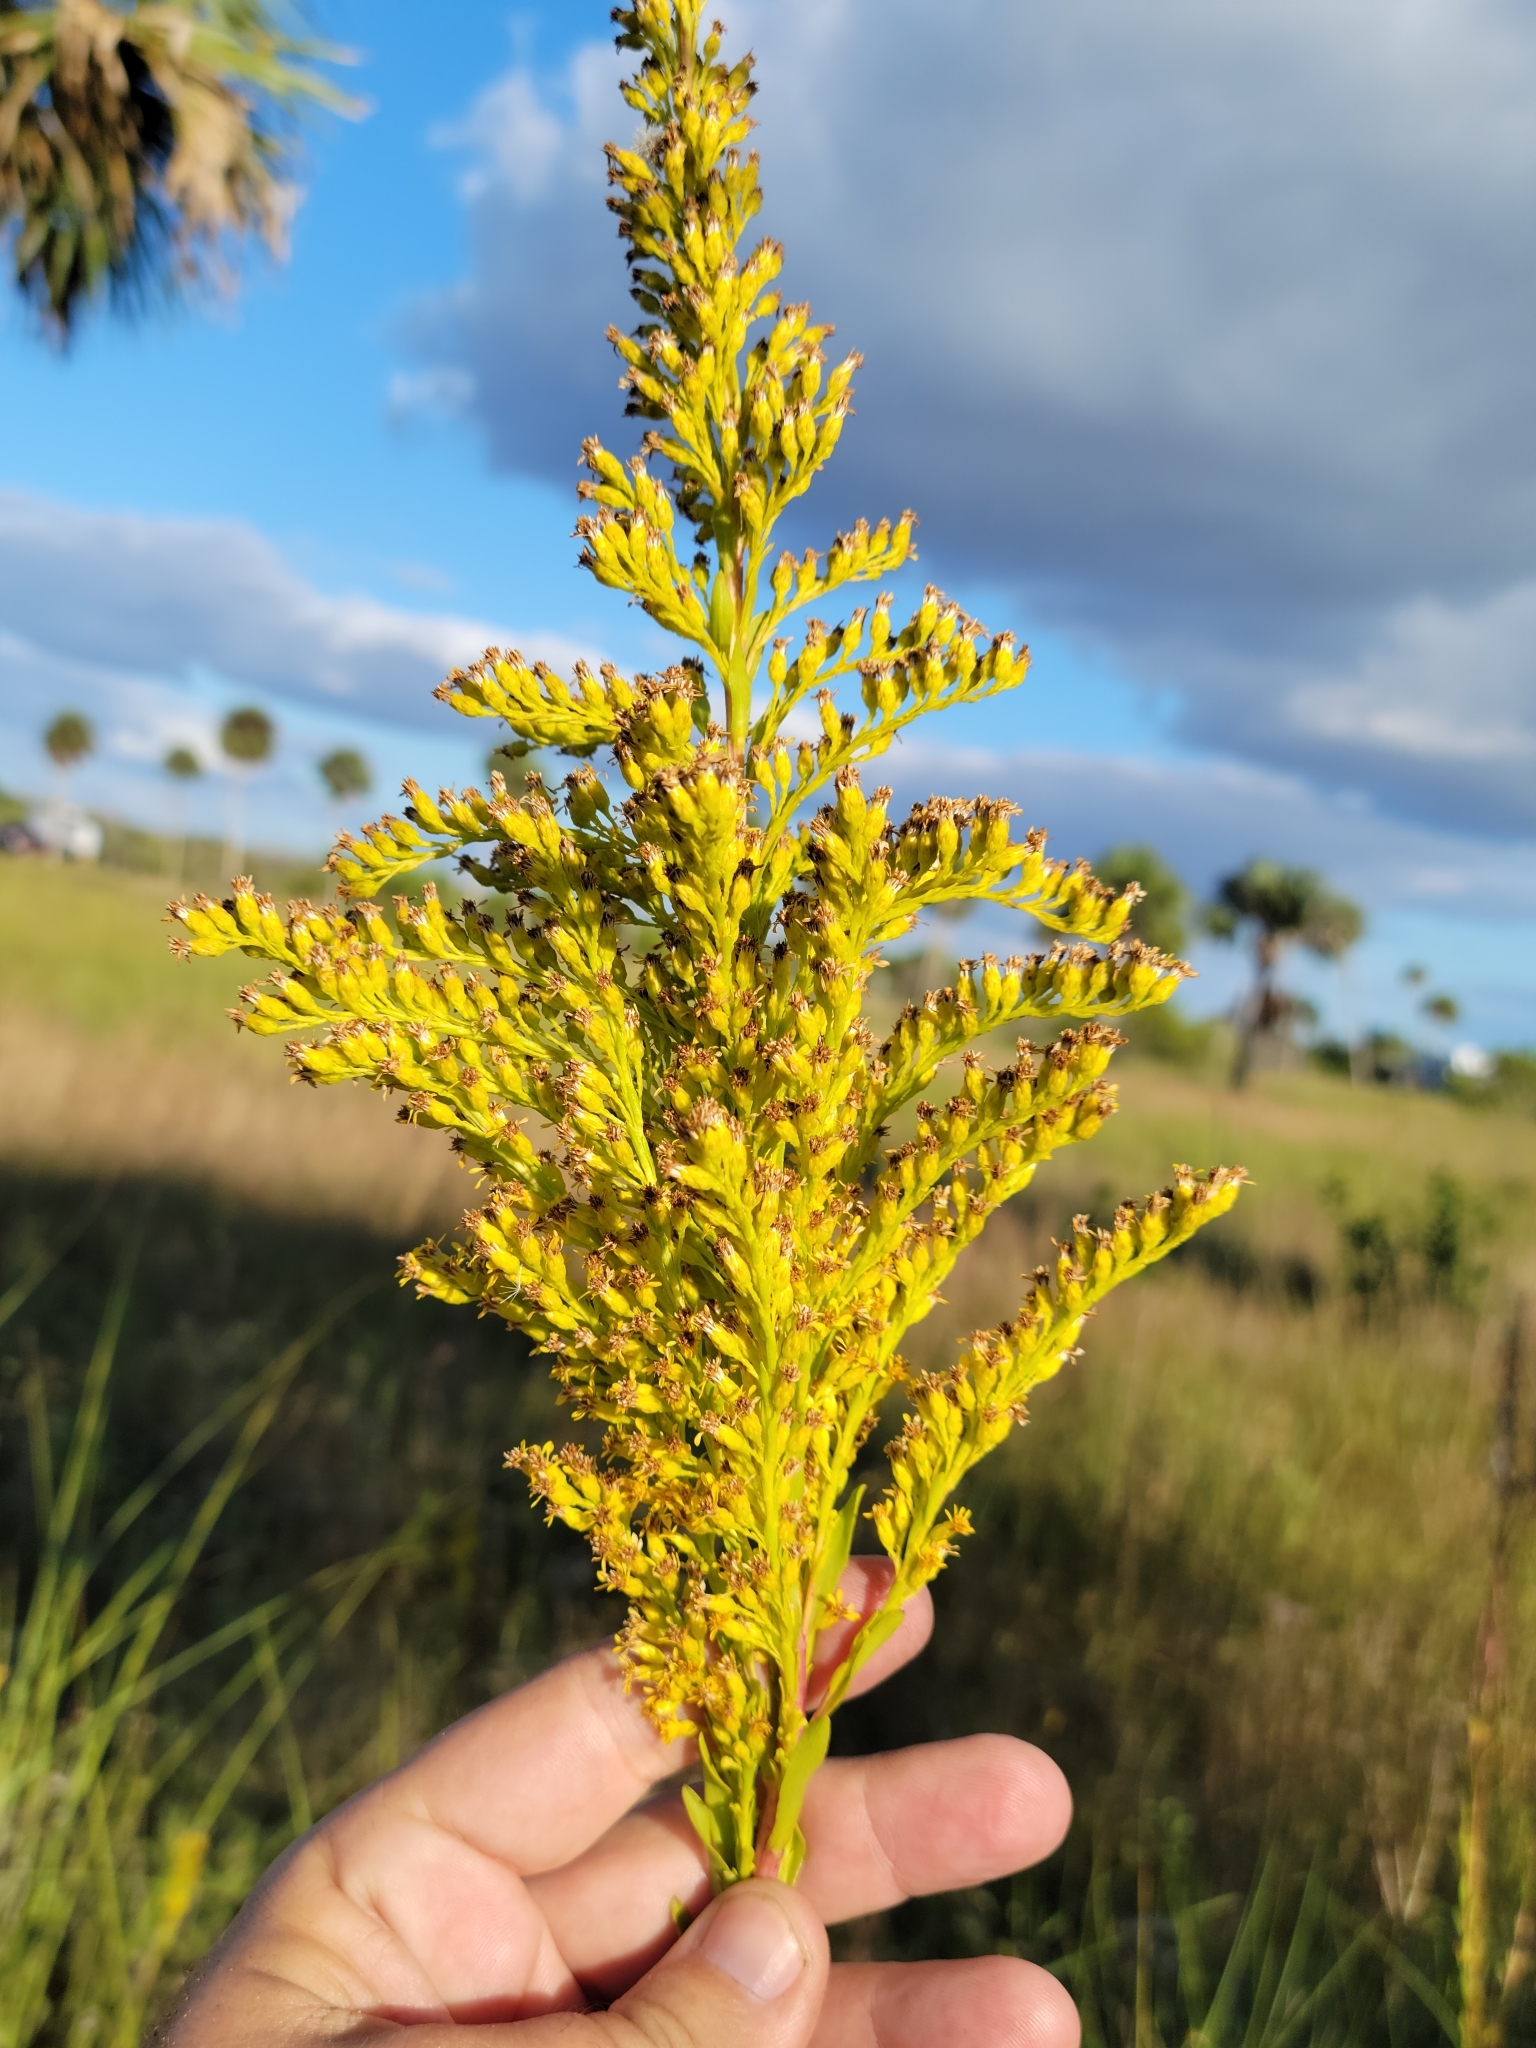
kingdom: Plantae
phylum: Tracheophyta
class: Magnoliopsida
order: Asterales
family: Asteraceae
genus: Solidago
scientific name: Solidago mexicana
